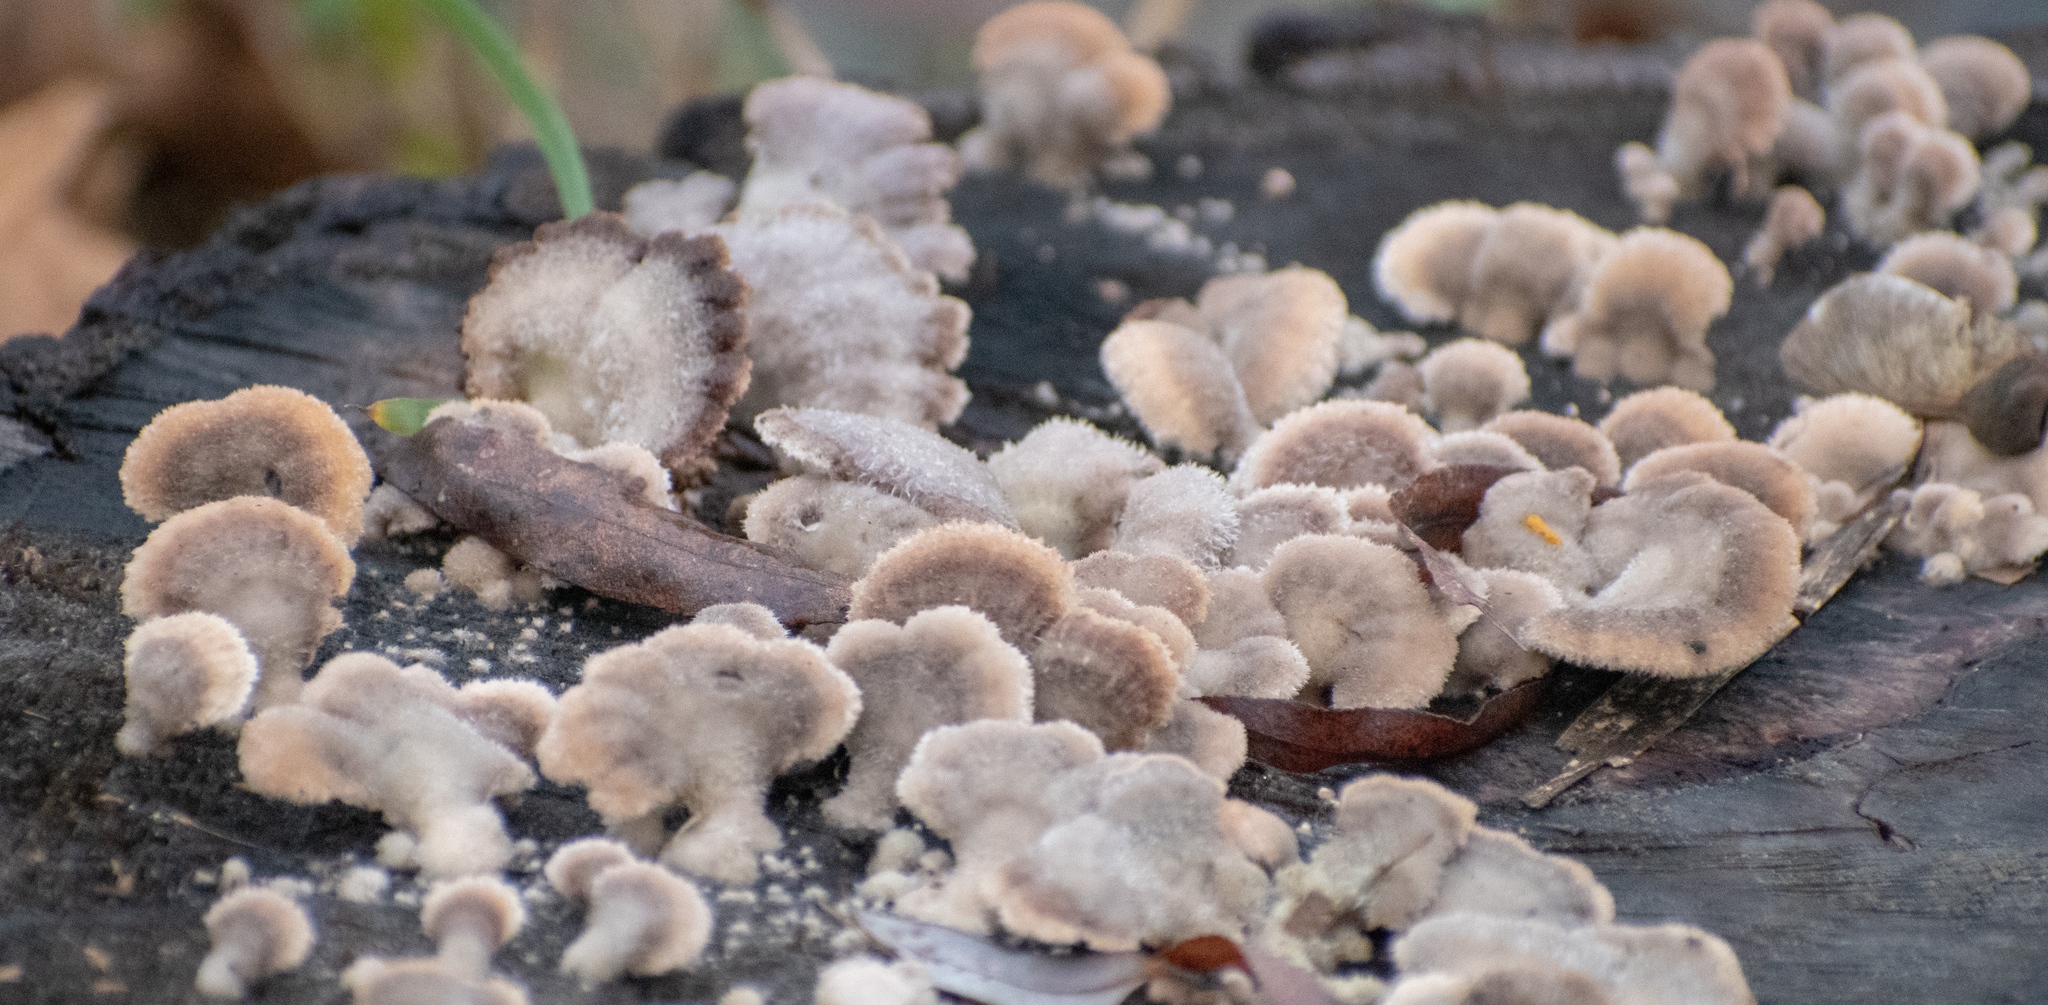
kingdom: Fungi
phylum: Basidiomycota
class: Agaricomycetes
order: Agaricales
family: Schizophyllaceae
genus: Schizophyllum
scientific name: Schizophyllum commune
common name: Common porecrust
